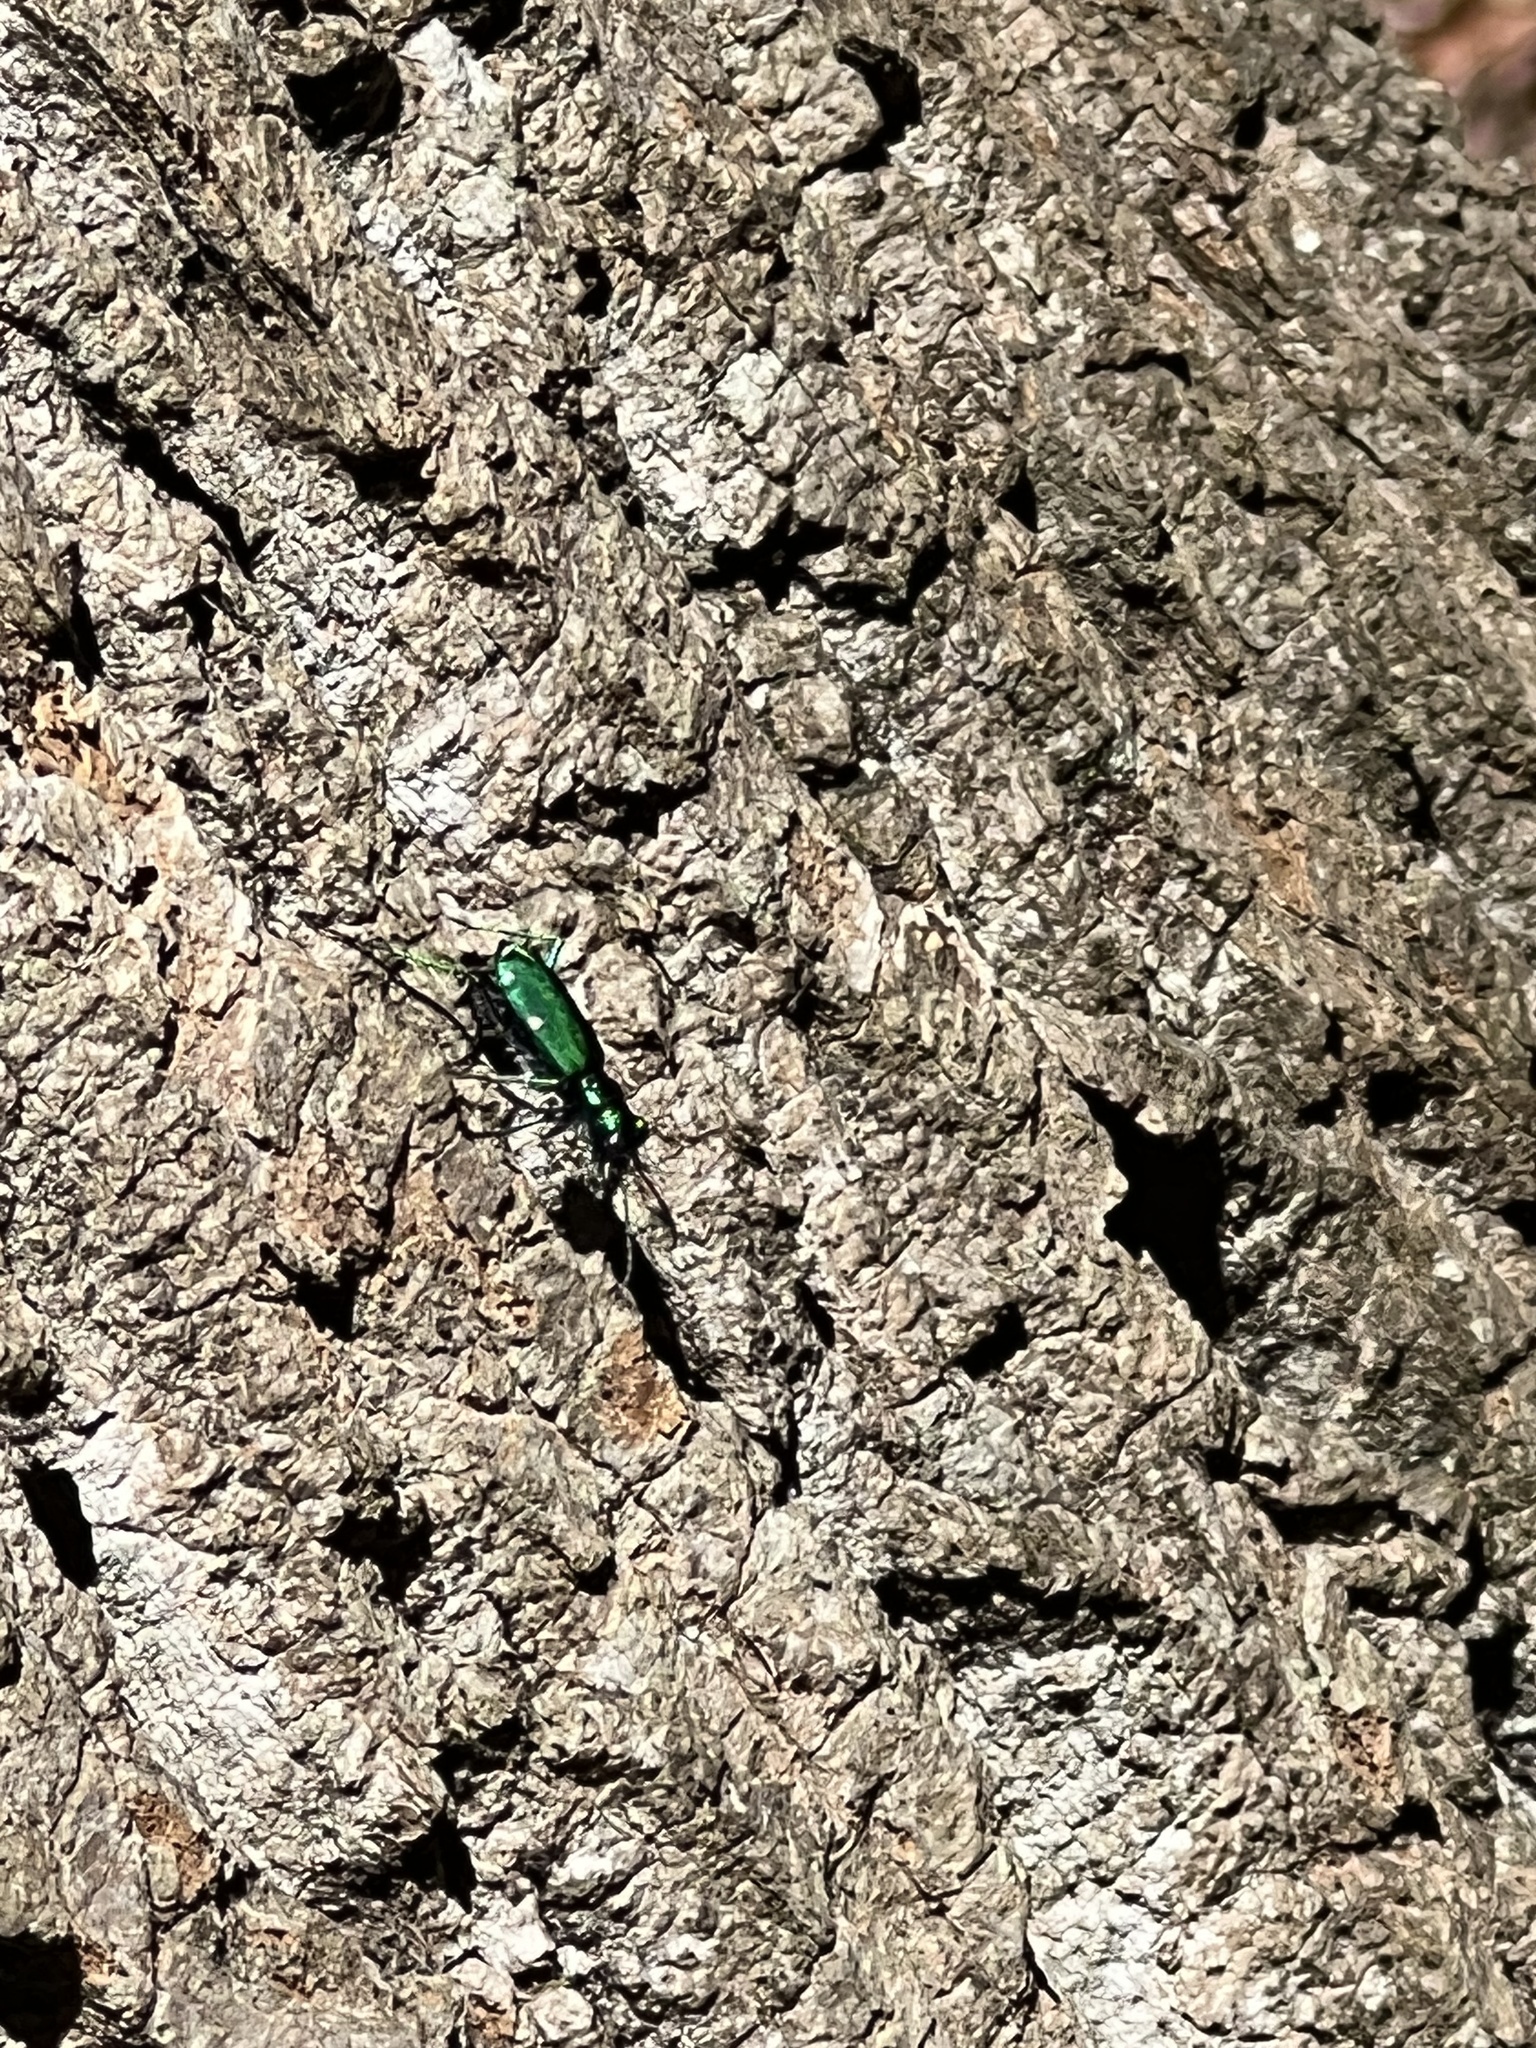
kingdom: Animalia
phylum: Arthropoda
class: Insecta
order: Coleoptera
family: Carabidae
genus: Cicindela
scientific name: Cicindela sexguttata
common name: Six-spotted tiger beetle
